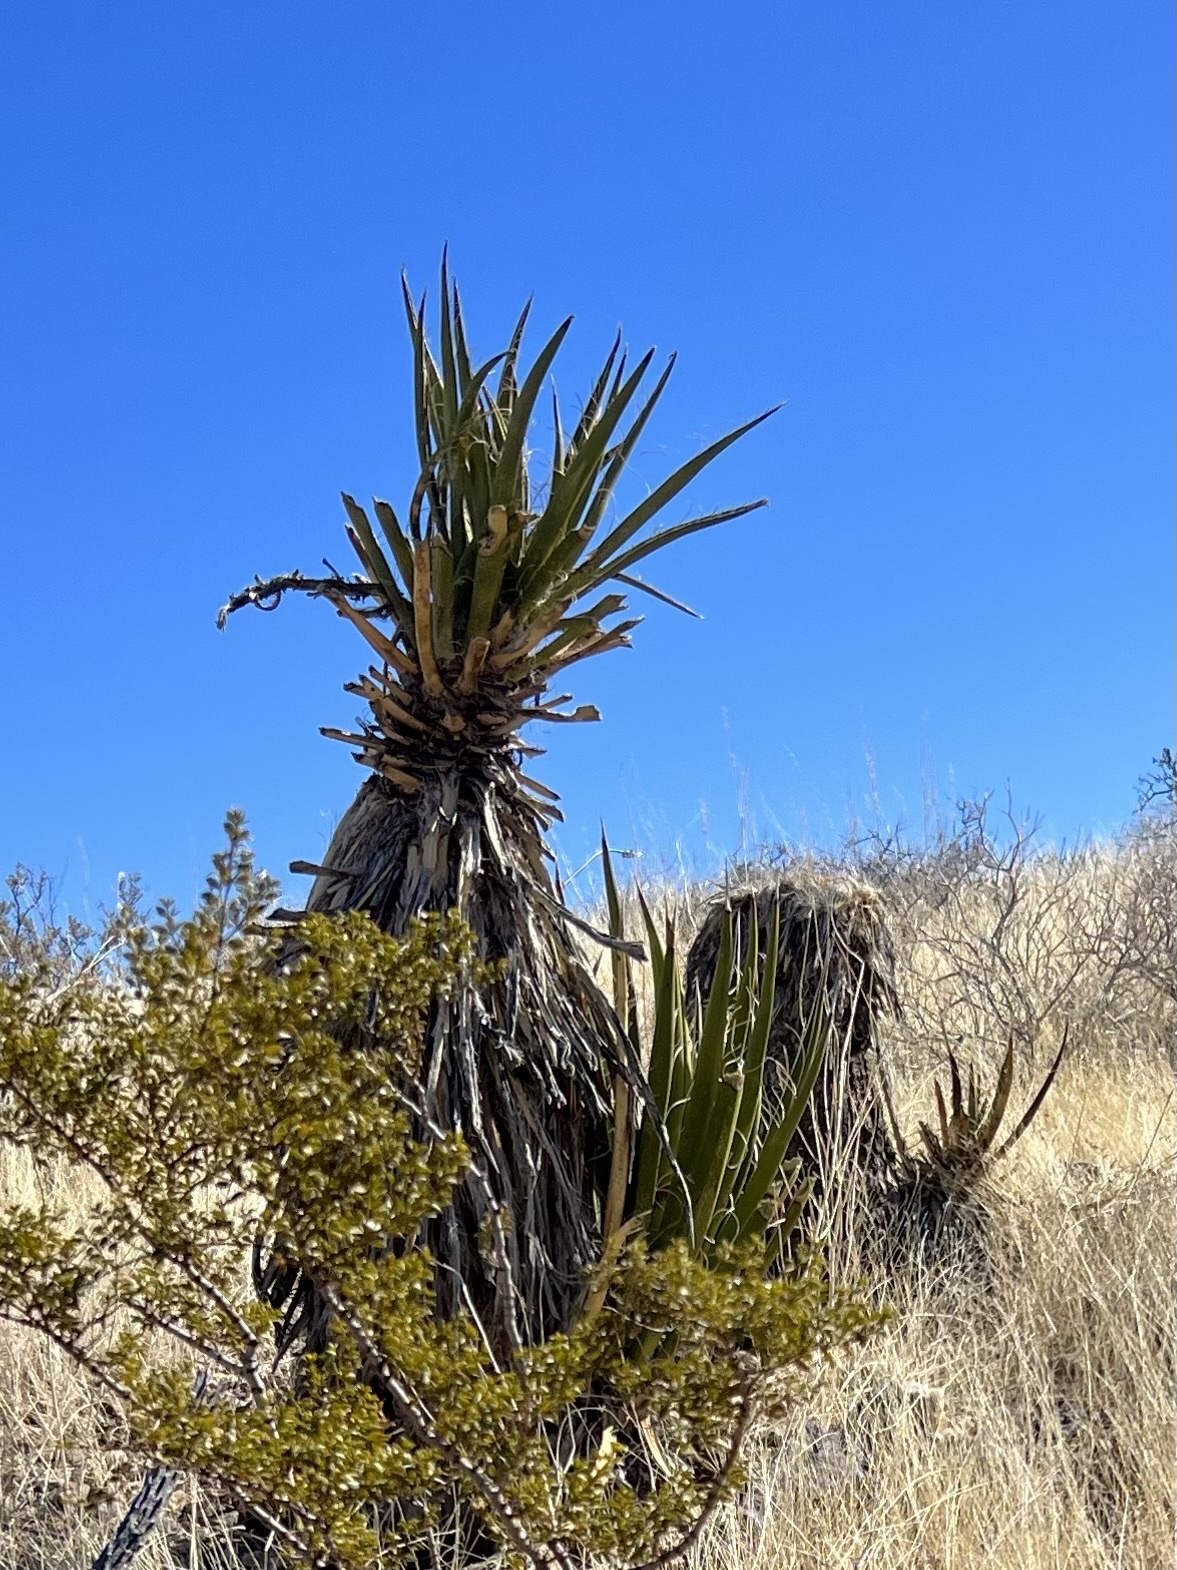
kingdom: Plantae
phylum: Tracheophyta
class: Liliopsida
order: Asparagales
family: Asparagaceae
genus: Yucca
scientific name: Yucca schidigera
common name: Mojave yucca
